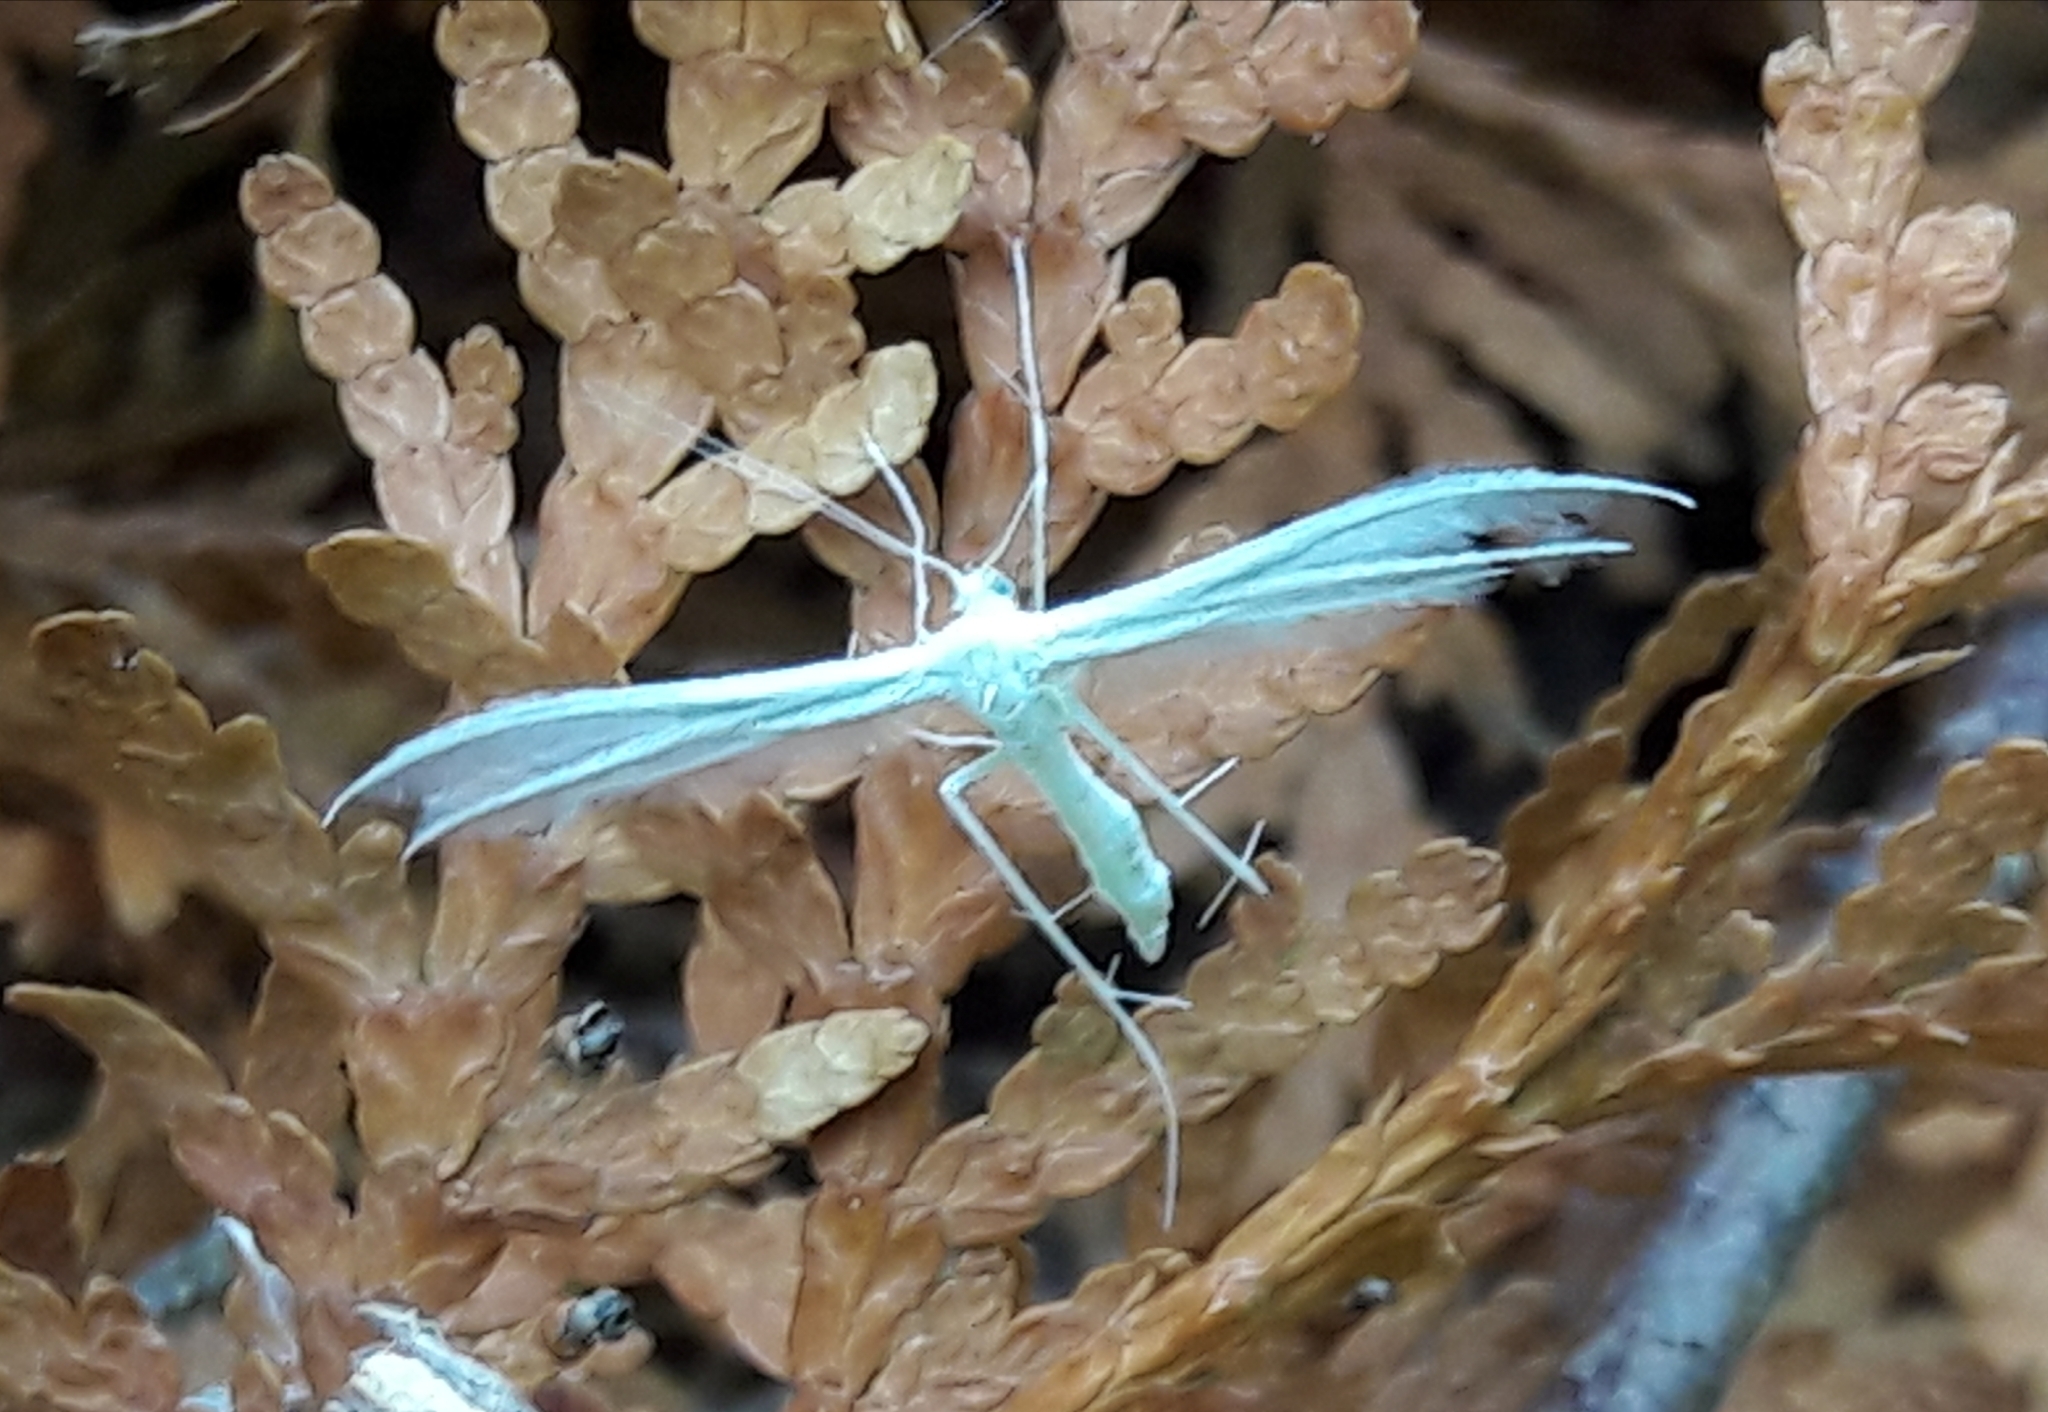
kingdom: Animalia
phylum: Arthropoda
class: Insecta
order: Lepidoptera
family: Pterophoridae
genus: Pterophorus
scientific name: Pterophorus pentadactyla
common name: White plume moth
